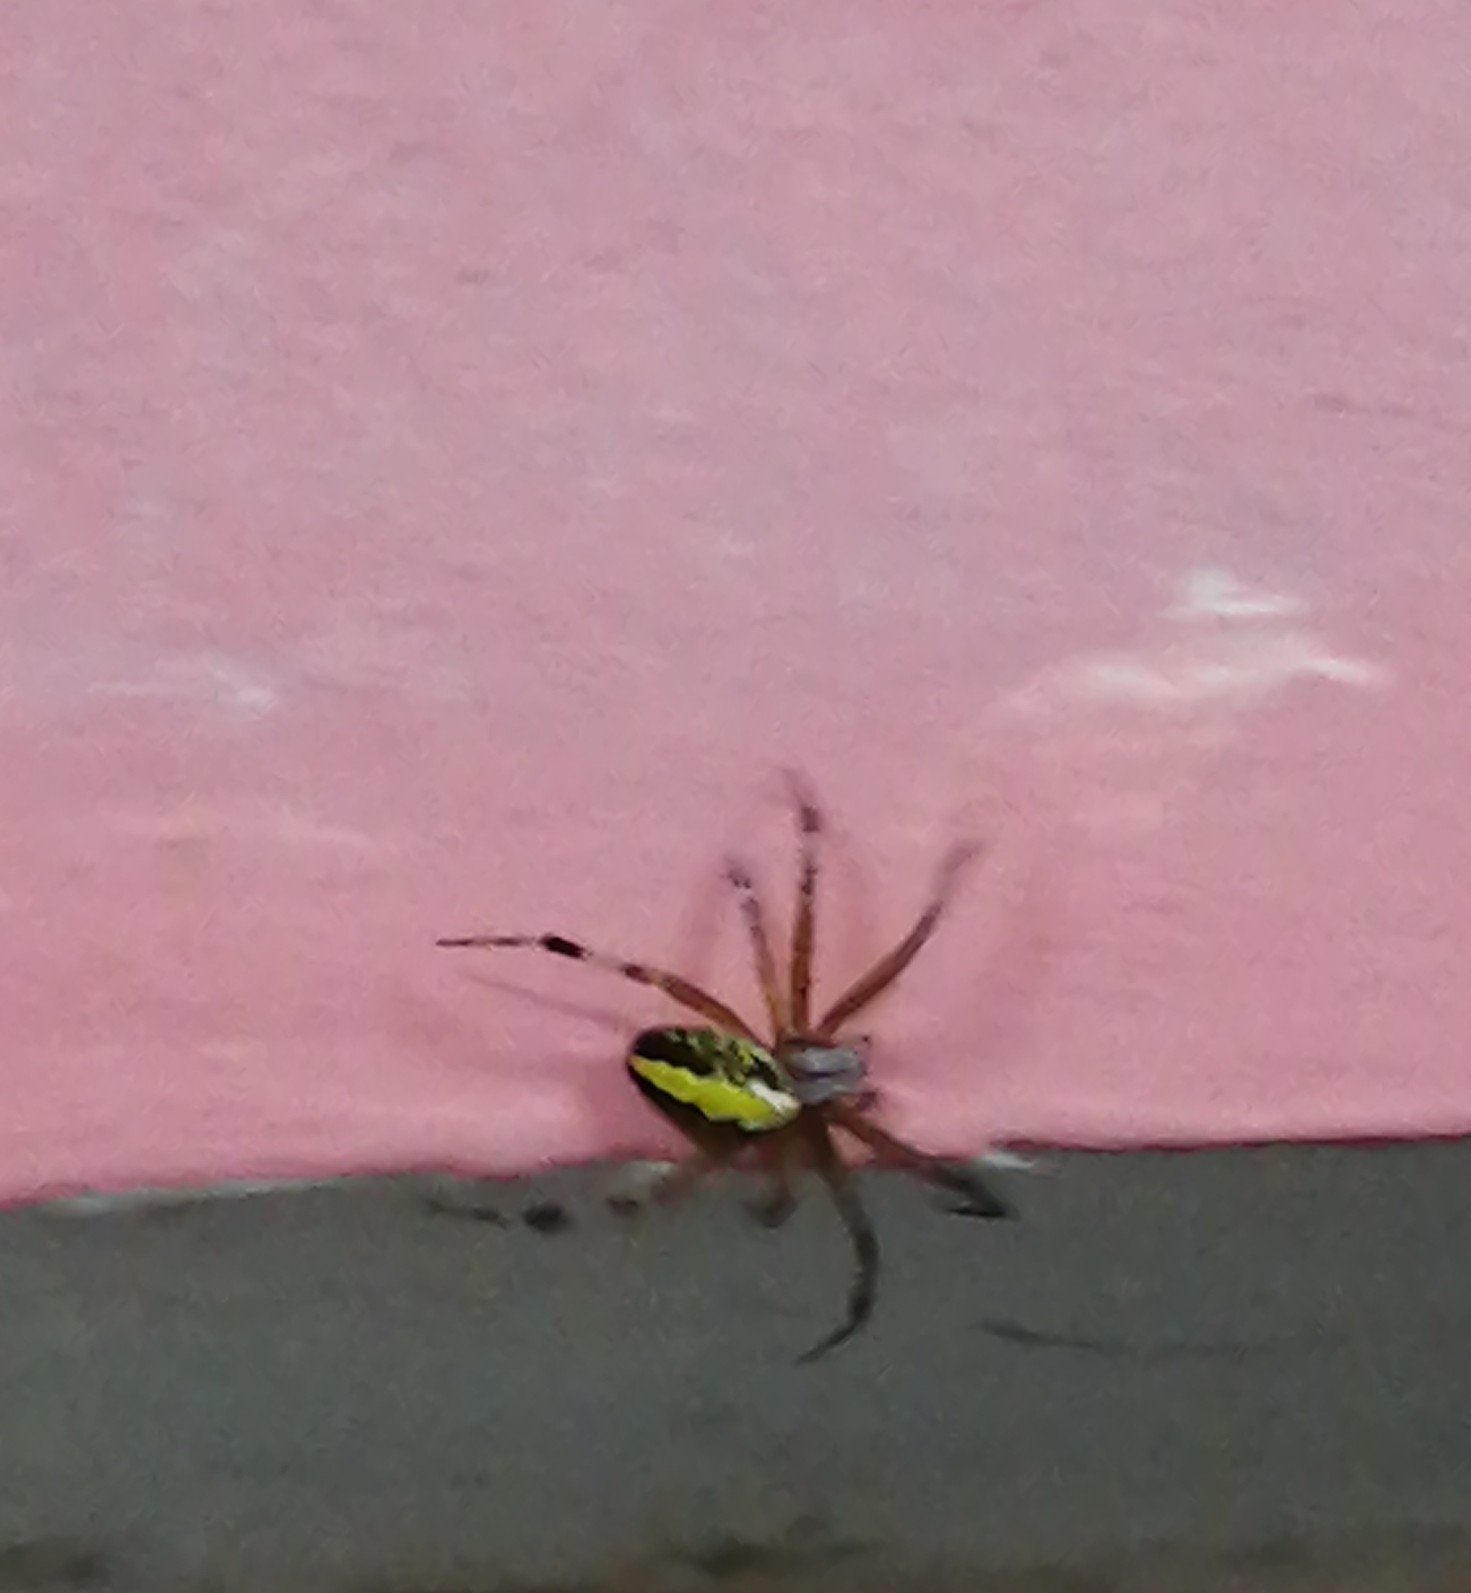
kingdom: Animalia
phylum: Arthropoda
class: Arachnida
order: Araneae
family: Araneidae
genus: Neoscona
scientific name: Neoscona oaxacensis
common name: Orb weavers
